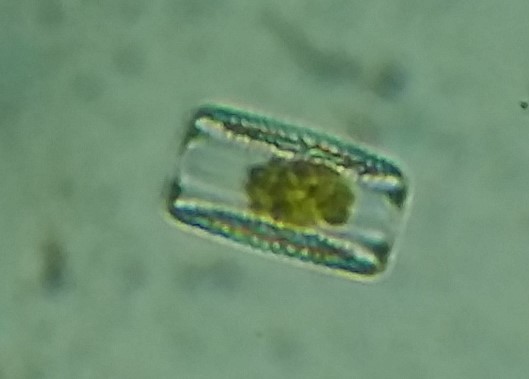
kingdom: Chromista
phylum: Ochrophyta
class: Bacillariophyceae
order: Fragilariales
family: Fragilariaceae
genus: Diatoma
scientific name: Diatoma vulgaris
